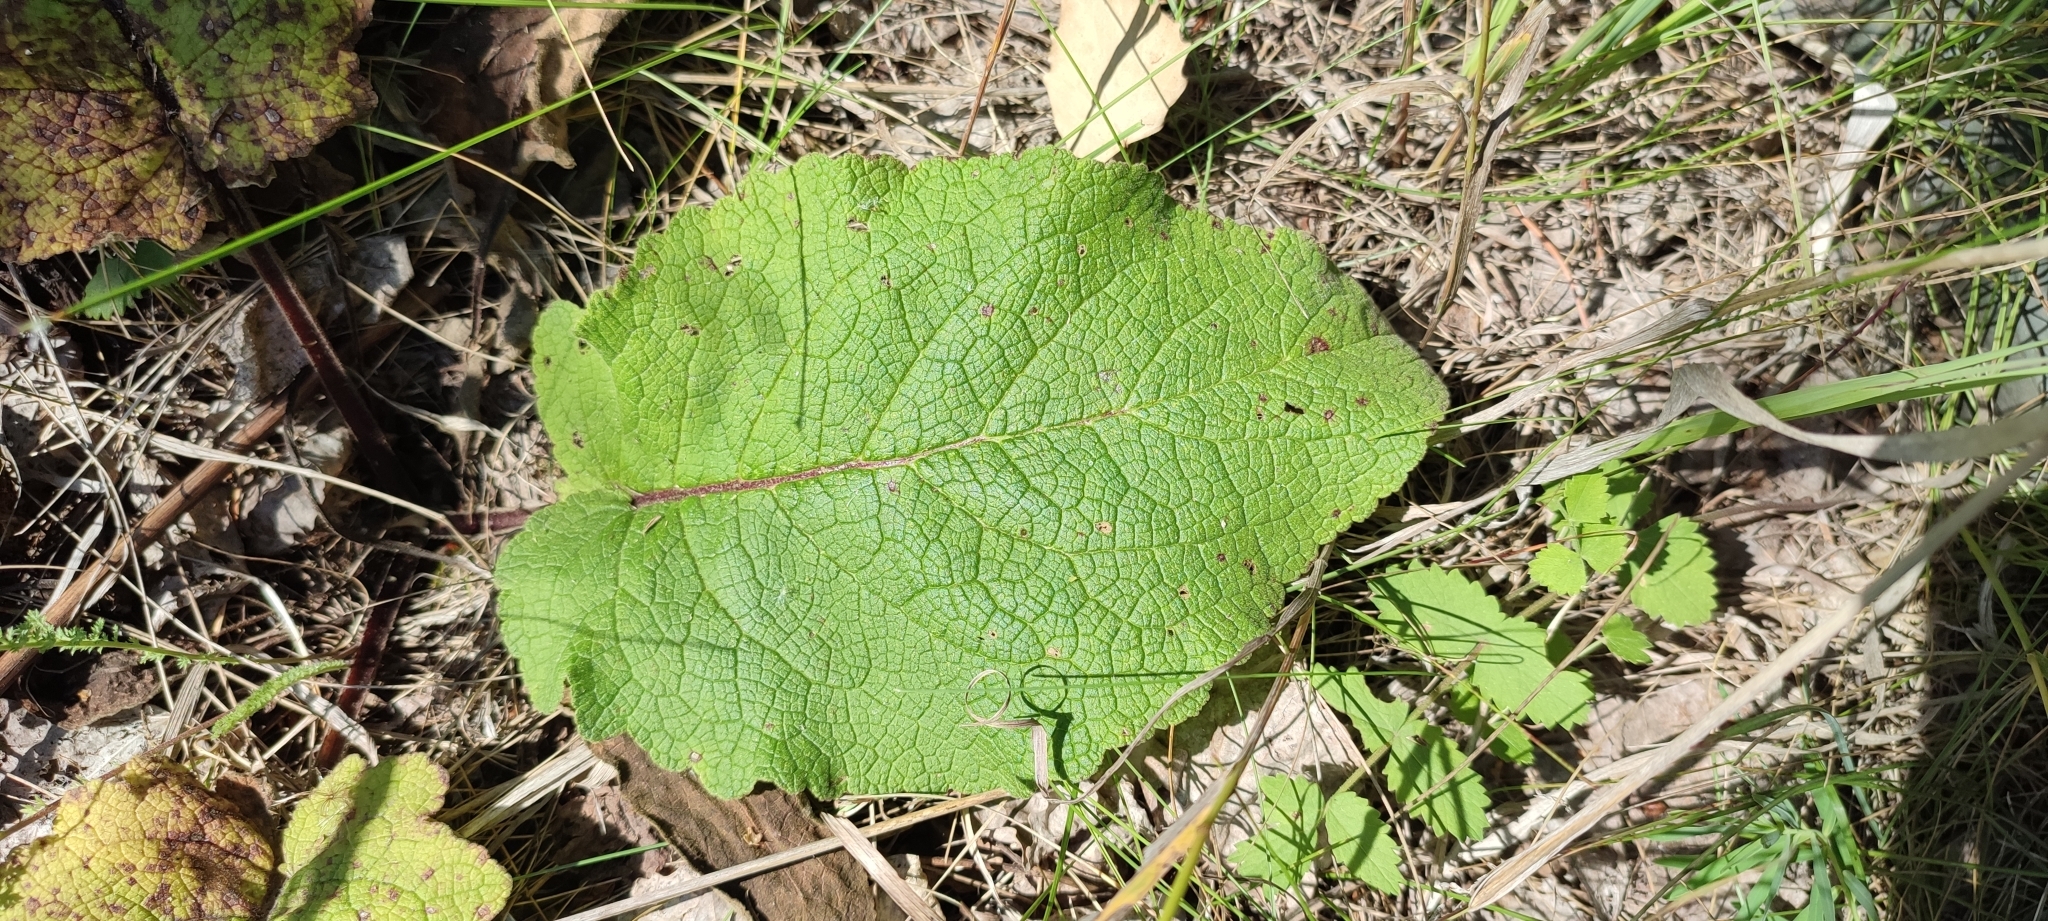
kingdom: Plantae
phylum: Tracheophyta
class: Magnoliopsida
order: Lamiales
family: Scrophulariaceae
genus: Verbascum
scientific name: Verbascum nigrum
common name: Dark mullein
